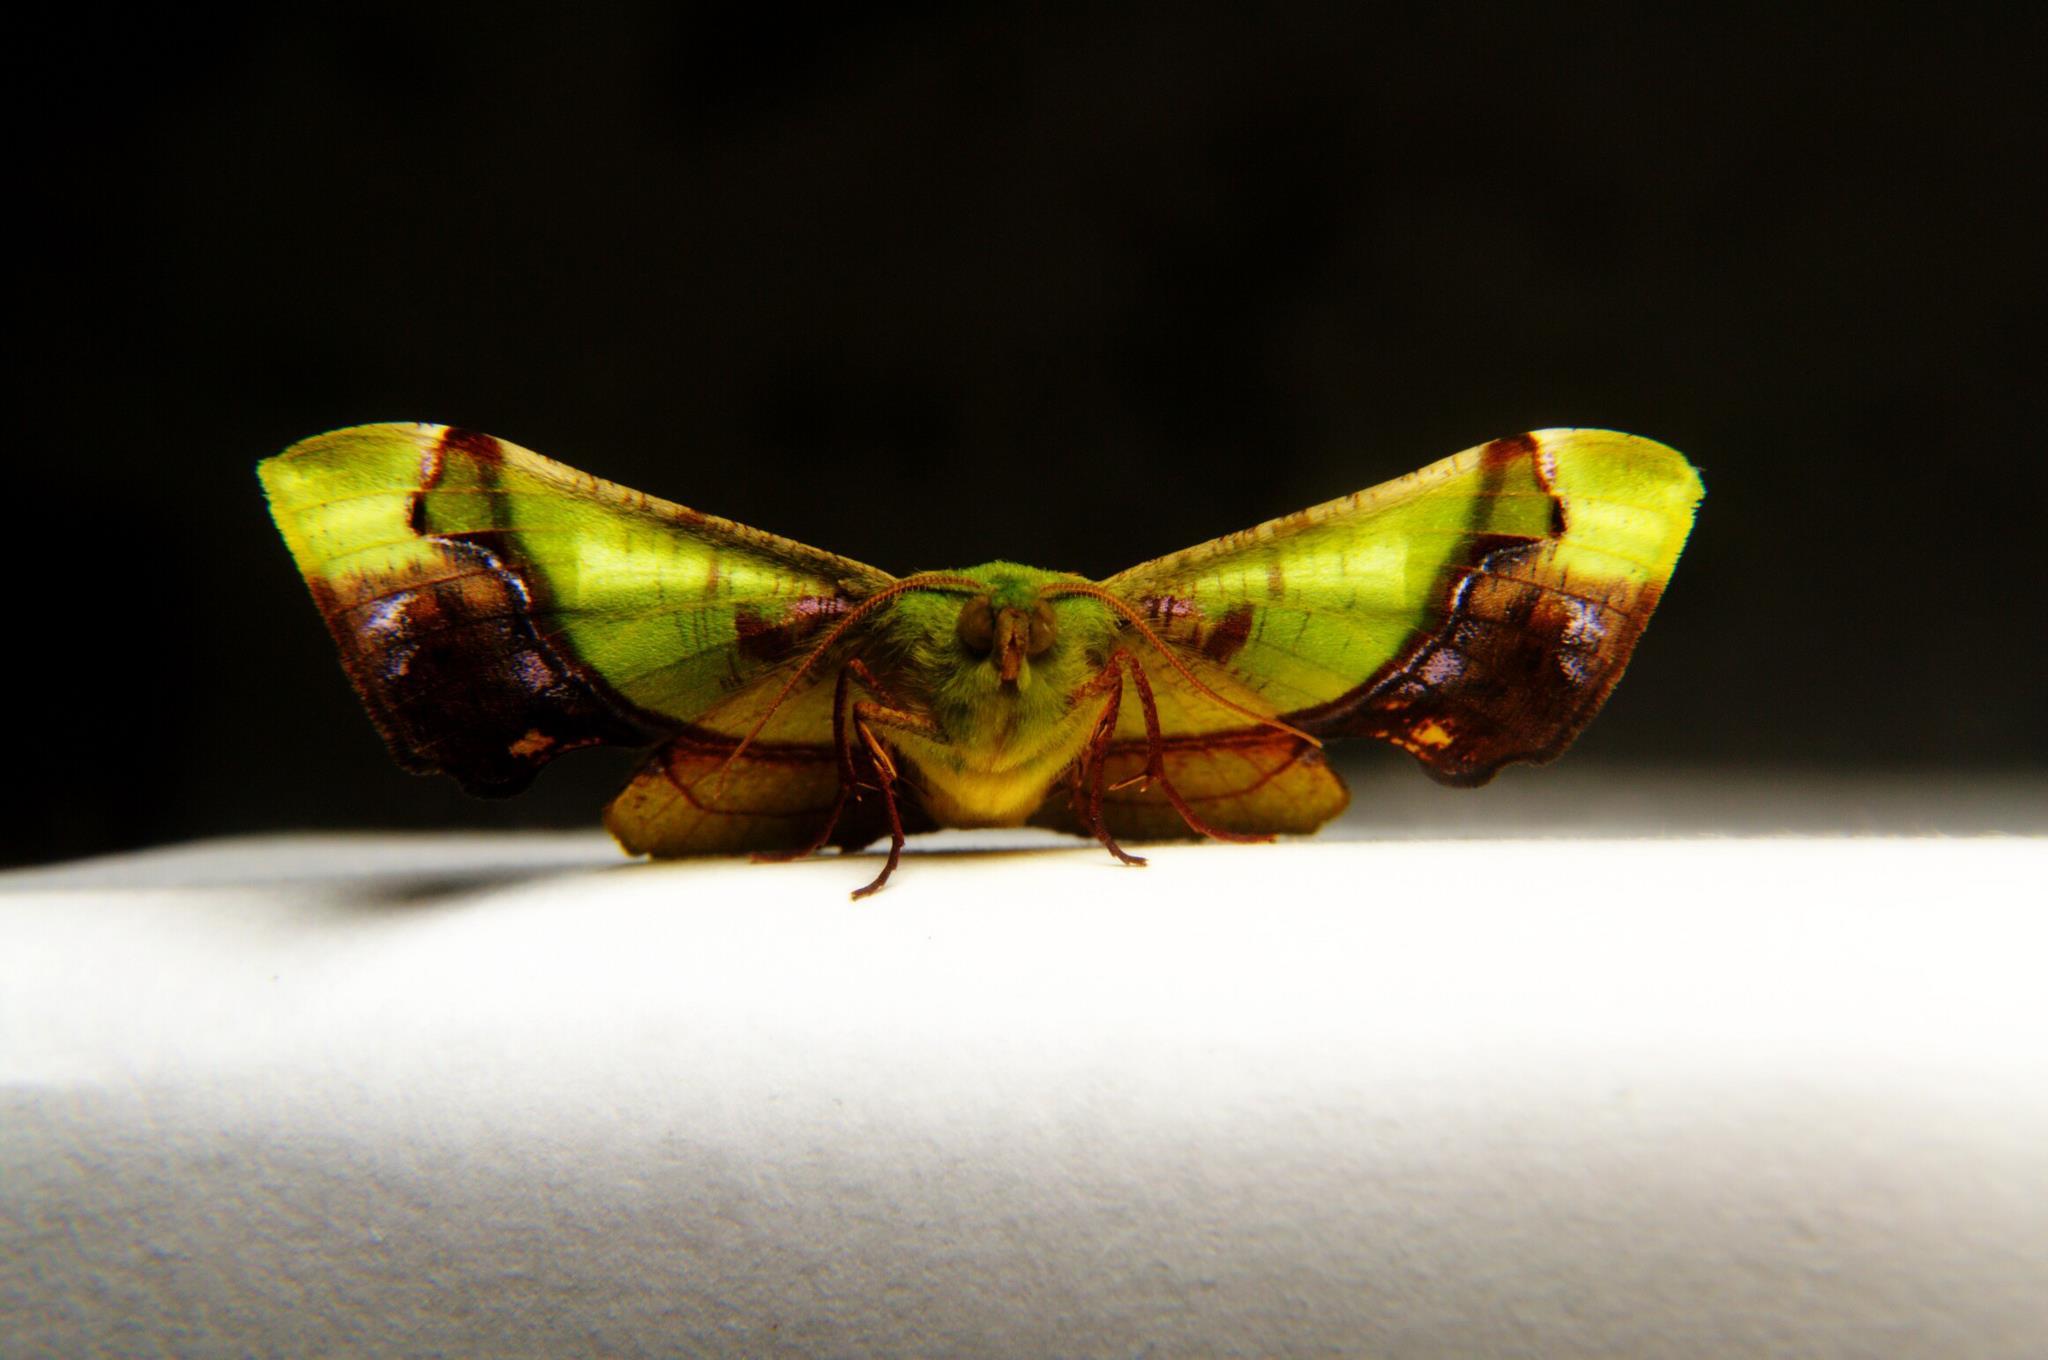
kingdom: Animalia
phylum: Arthropoda
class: Insecta
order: Lepidoptera
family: Geometridae
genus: Fascellina
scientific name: Fascellina plagiata
